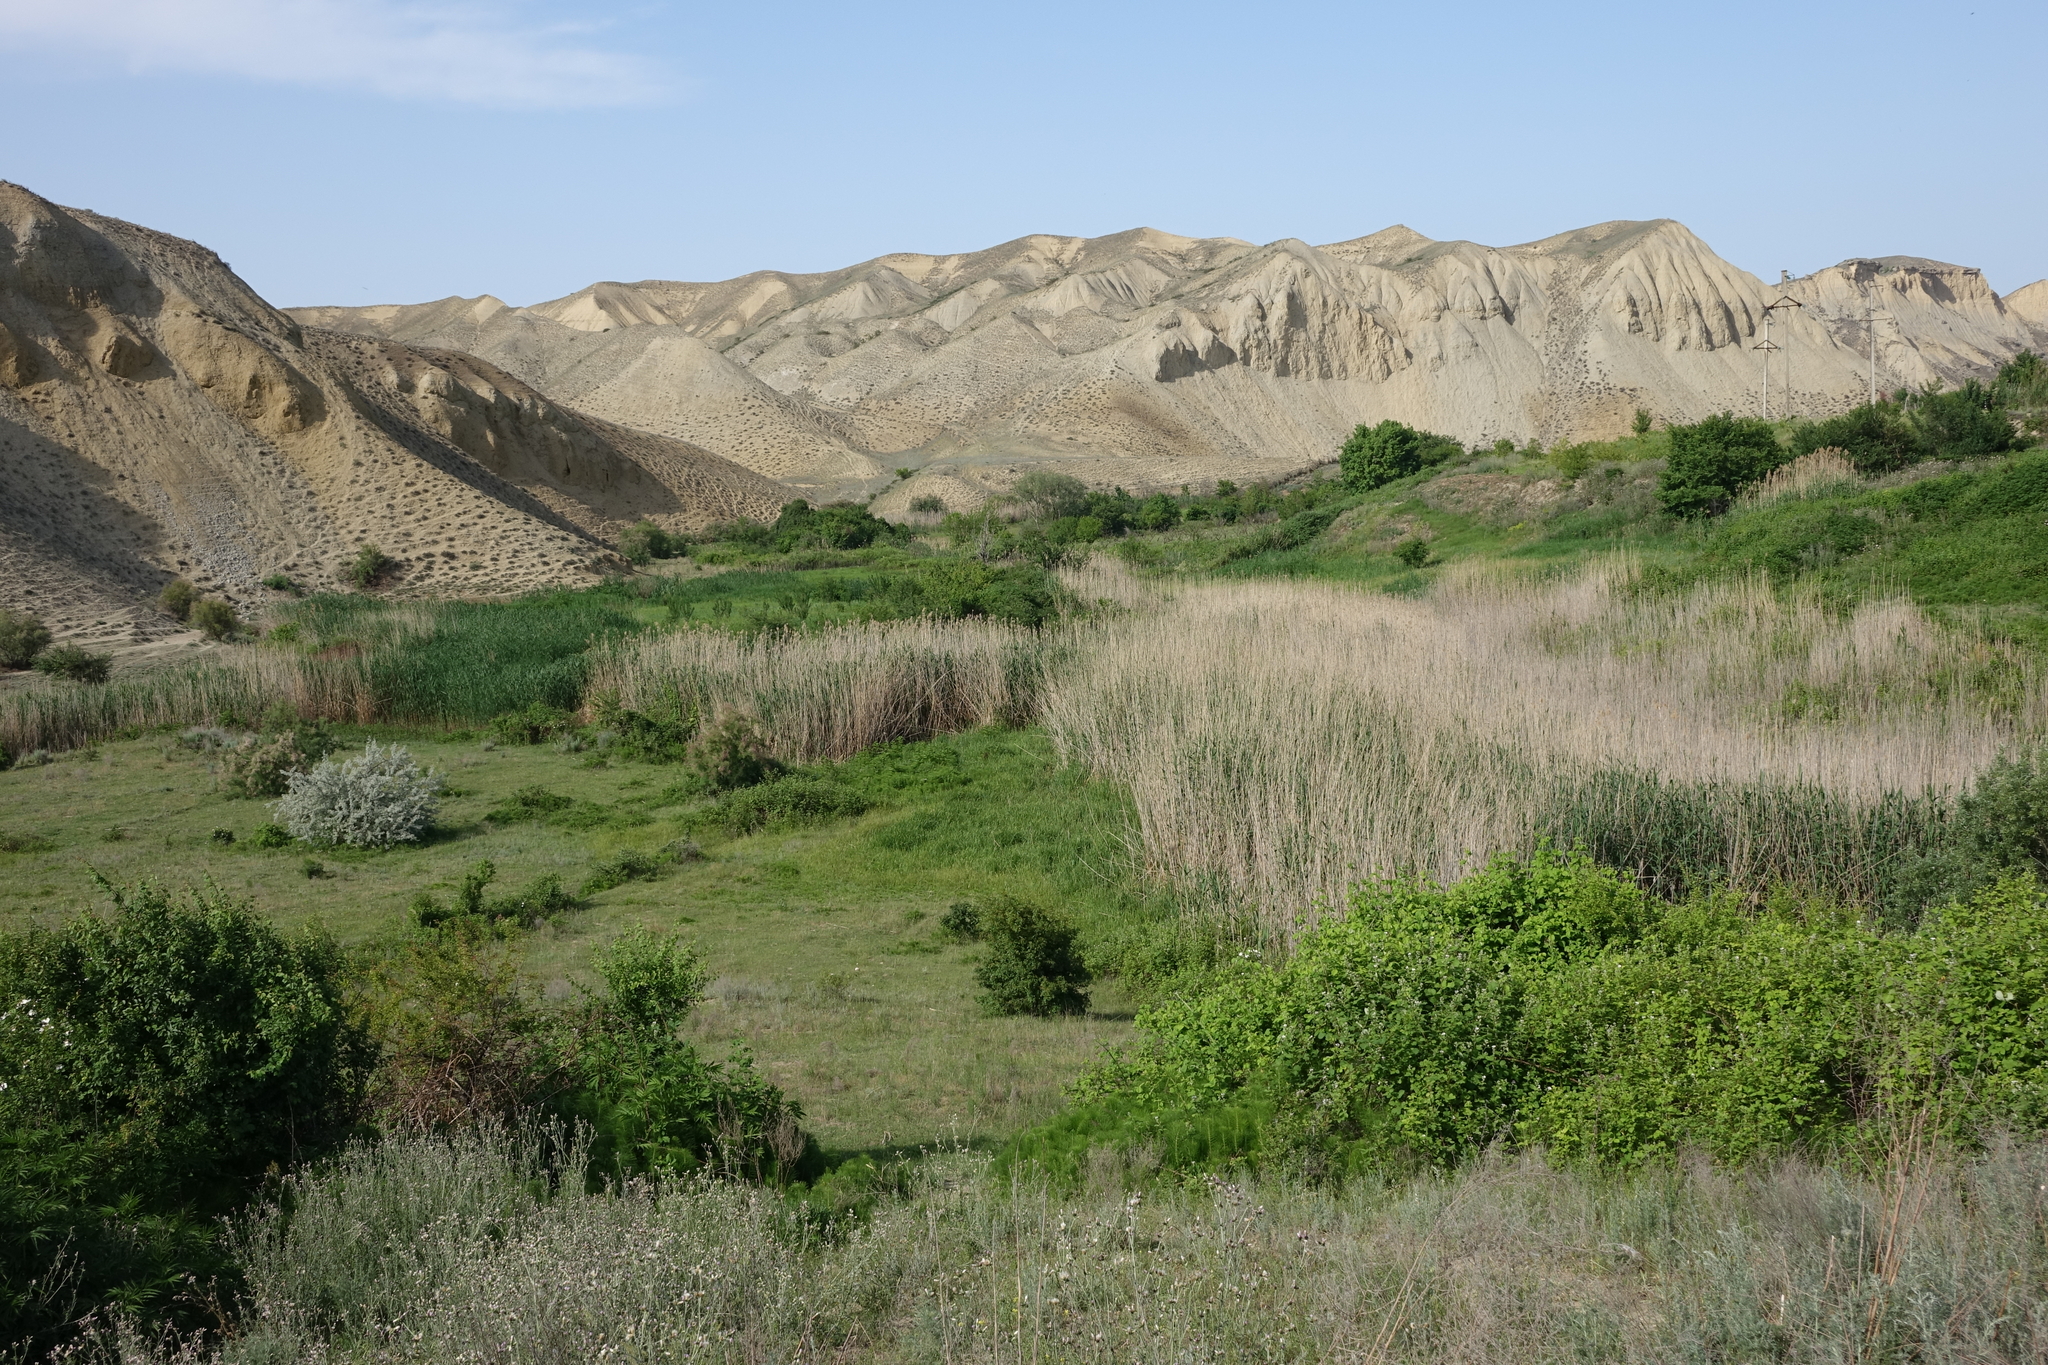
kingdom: Plantae
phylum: Tracheophyta
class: Liliopsida
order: Poales
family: Poaceae
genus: Phragmites
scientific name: Phragmites australis
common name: Common reed
